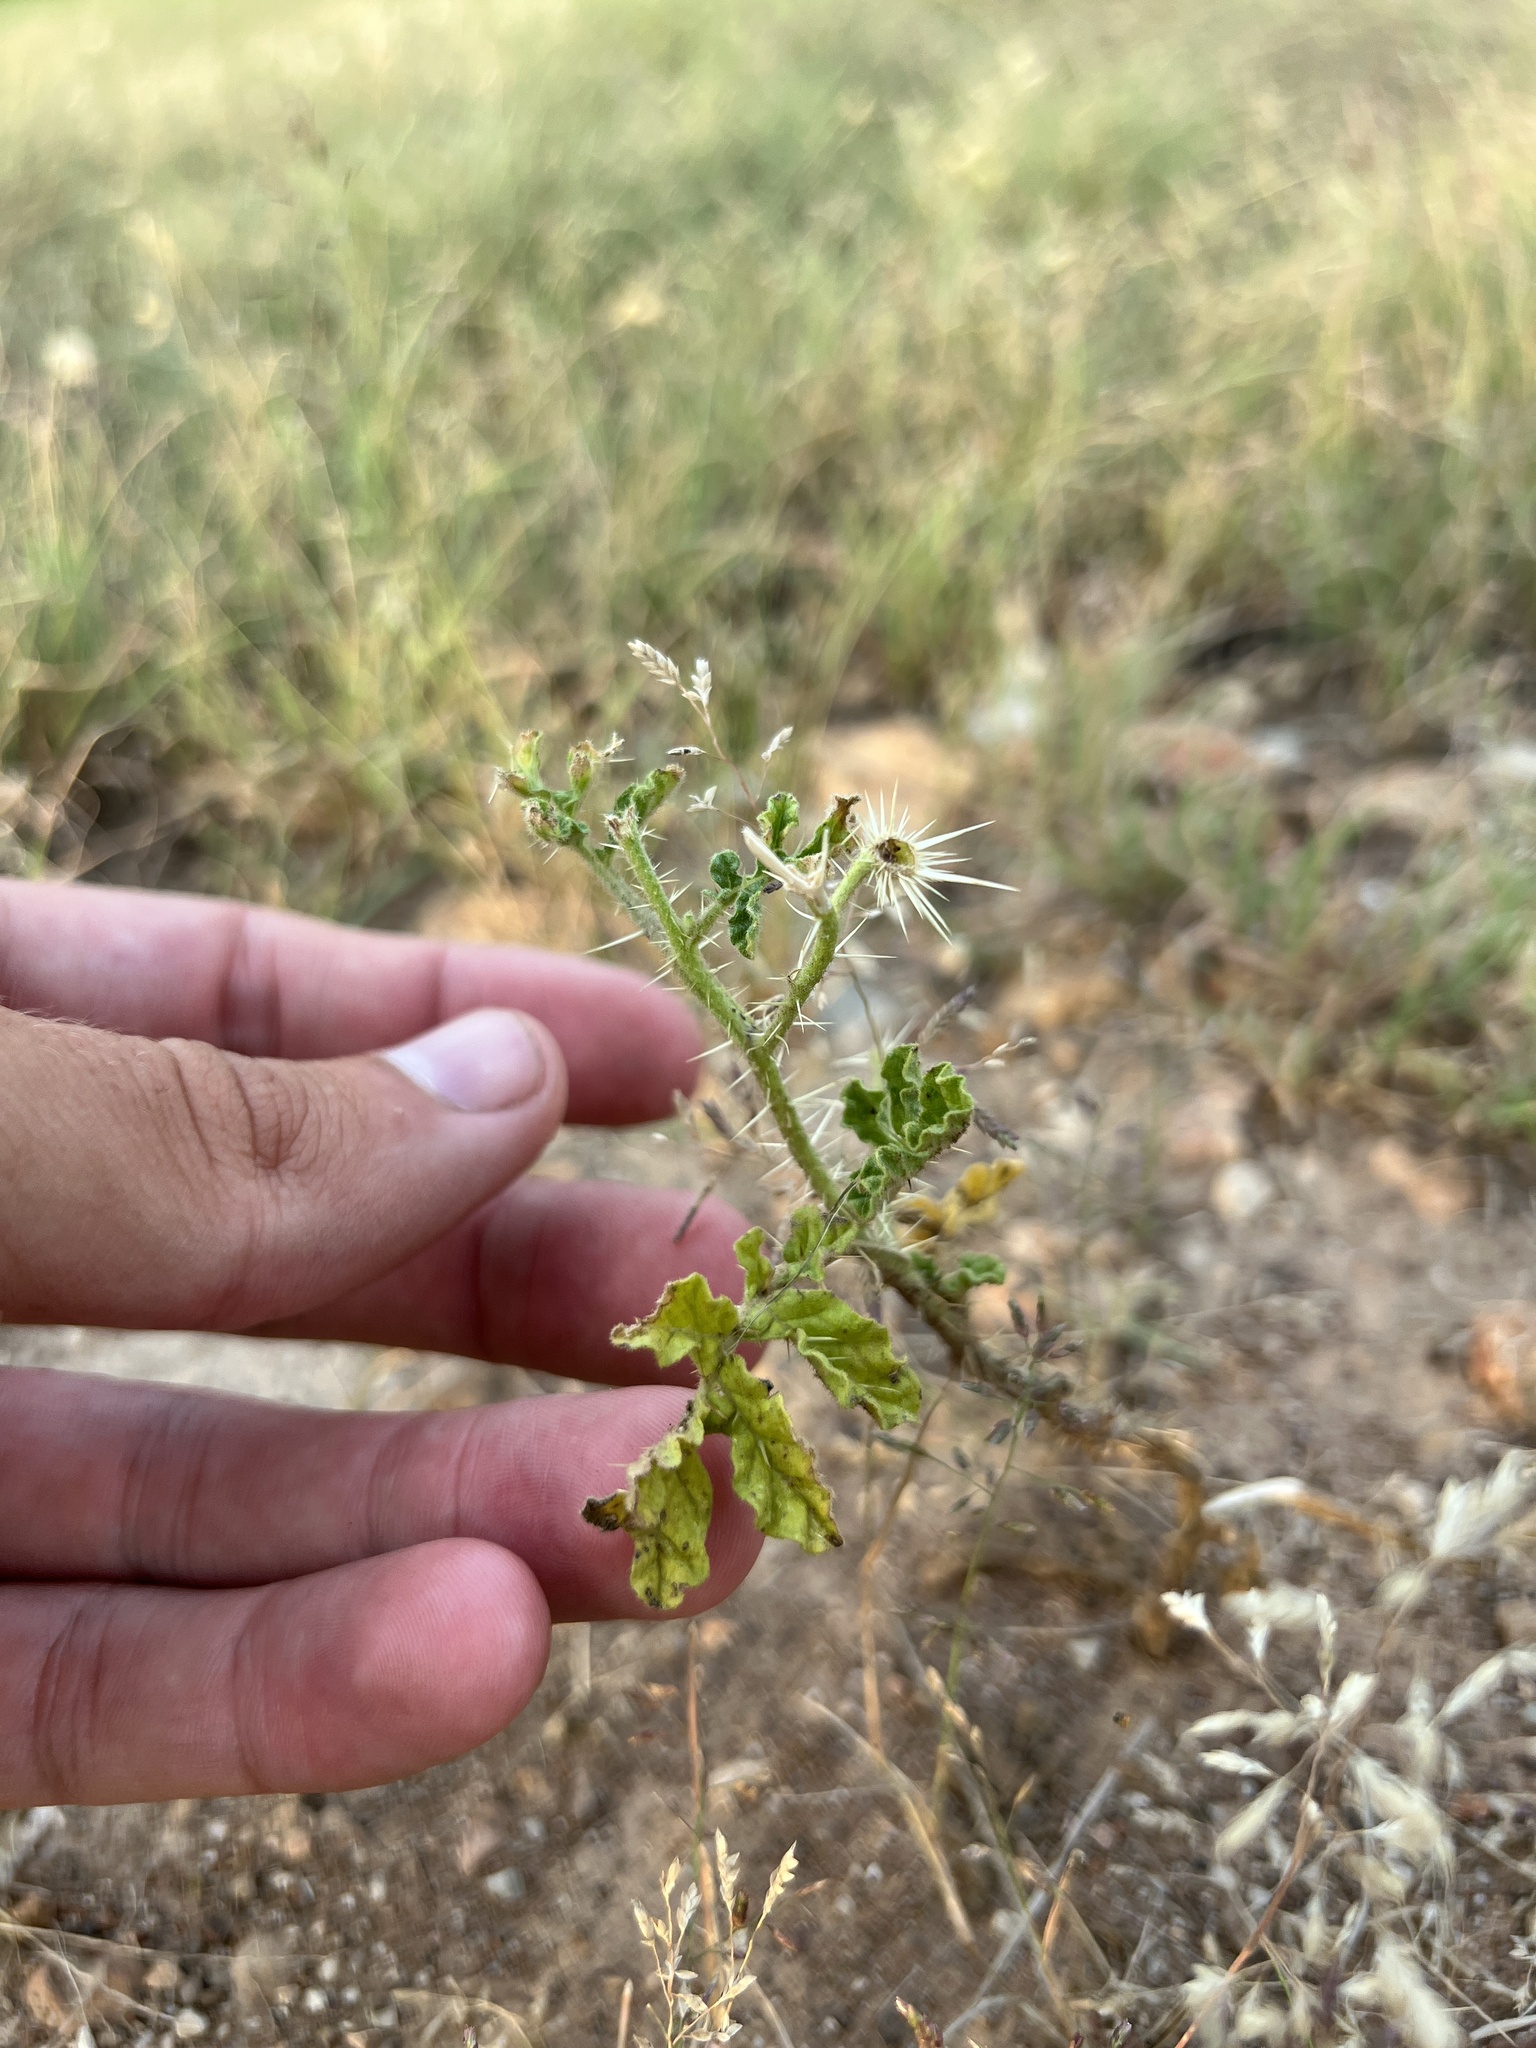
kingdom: Plantae
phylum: Tracheophyta
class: Magnoliopsida
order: Solanales
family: Solanaceae
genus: Solanum
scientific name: Solanum angustifolium
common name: Buffalobur nightshade
